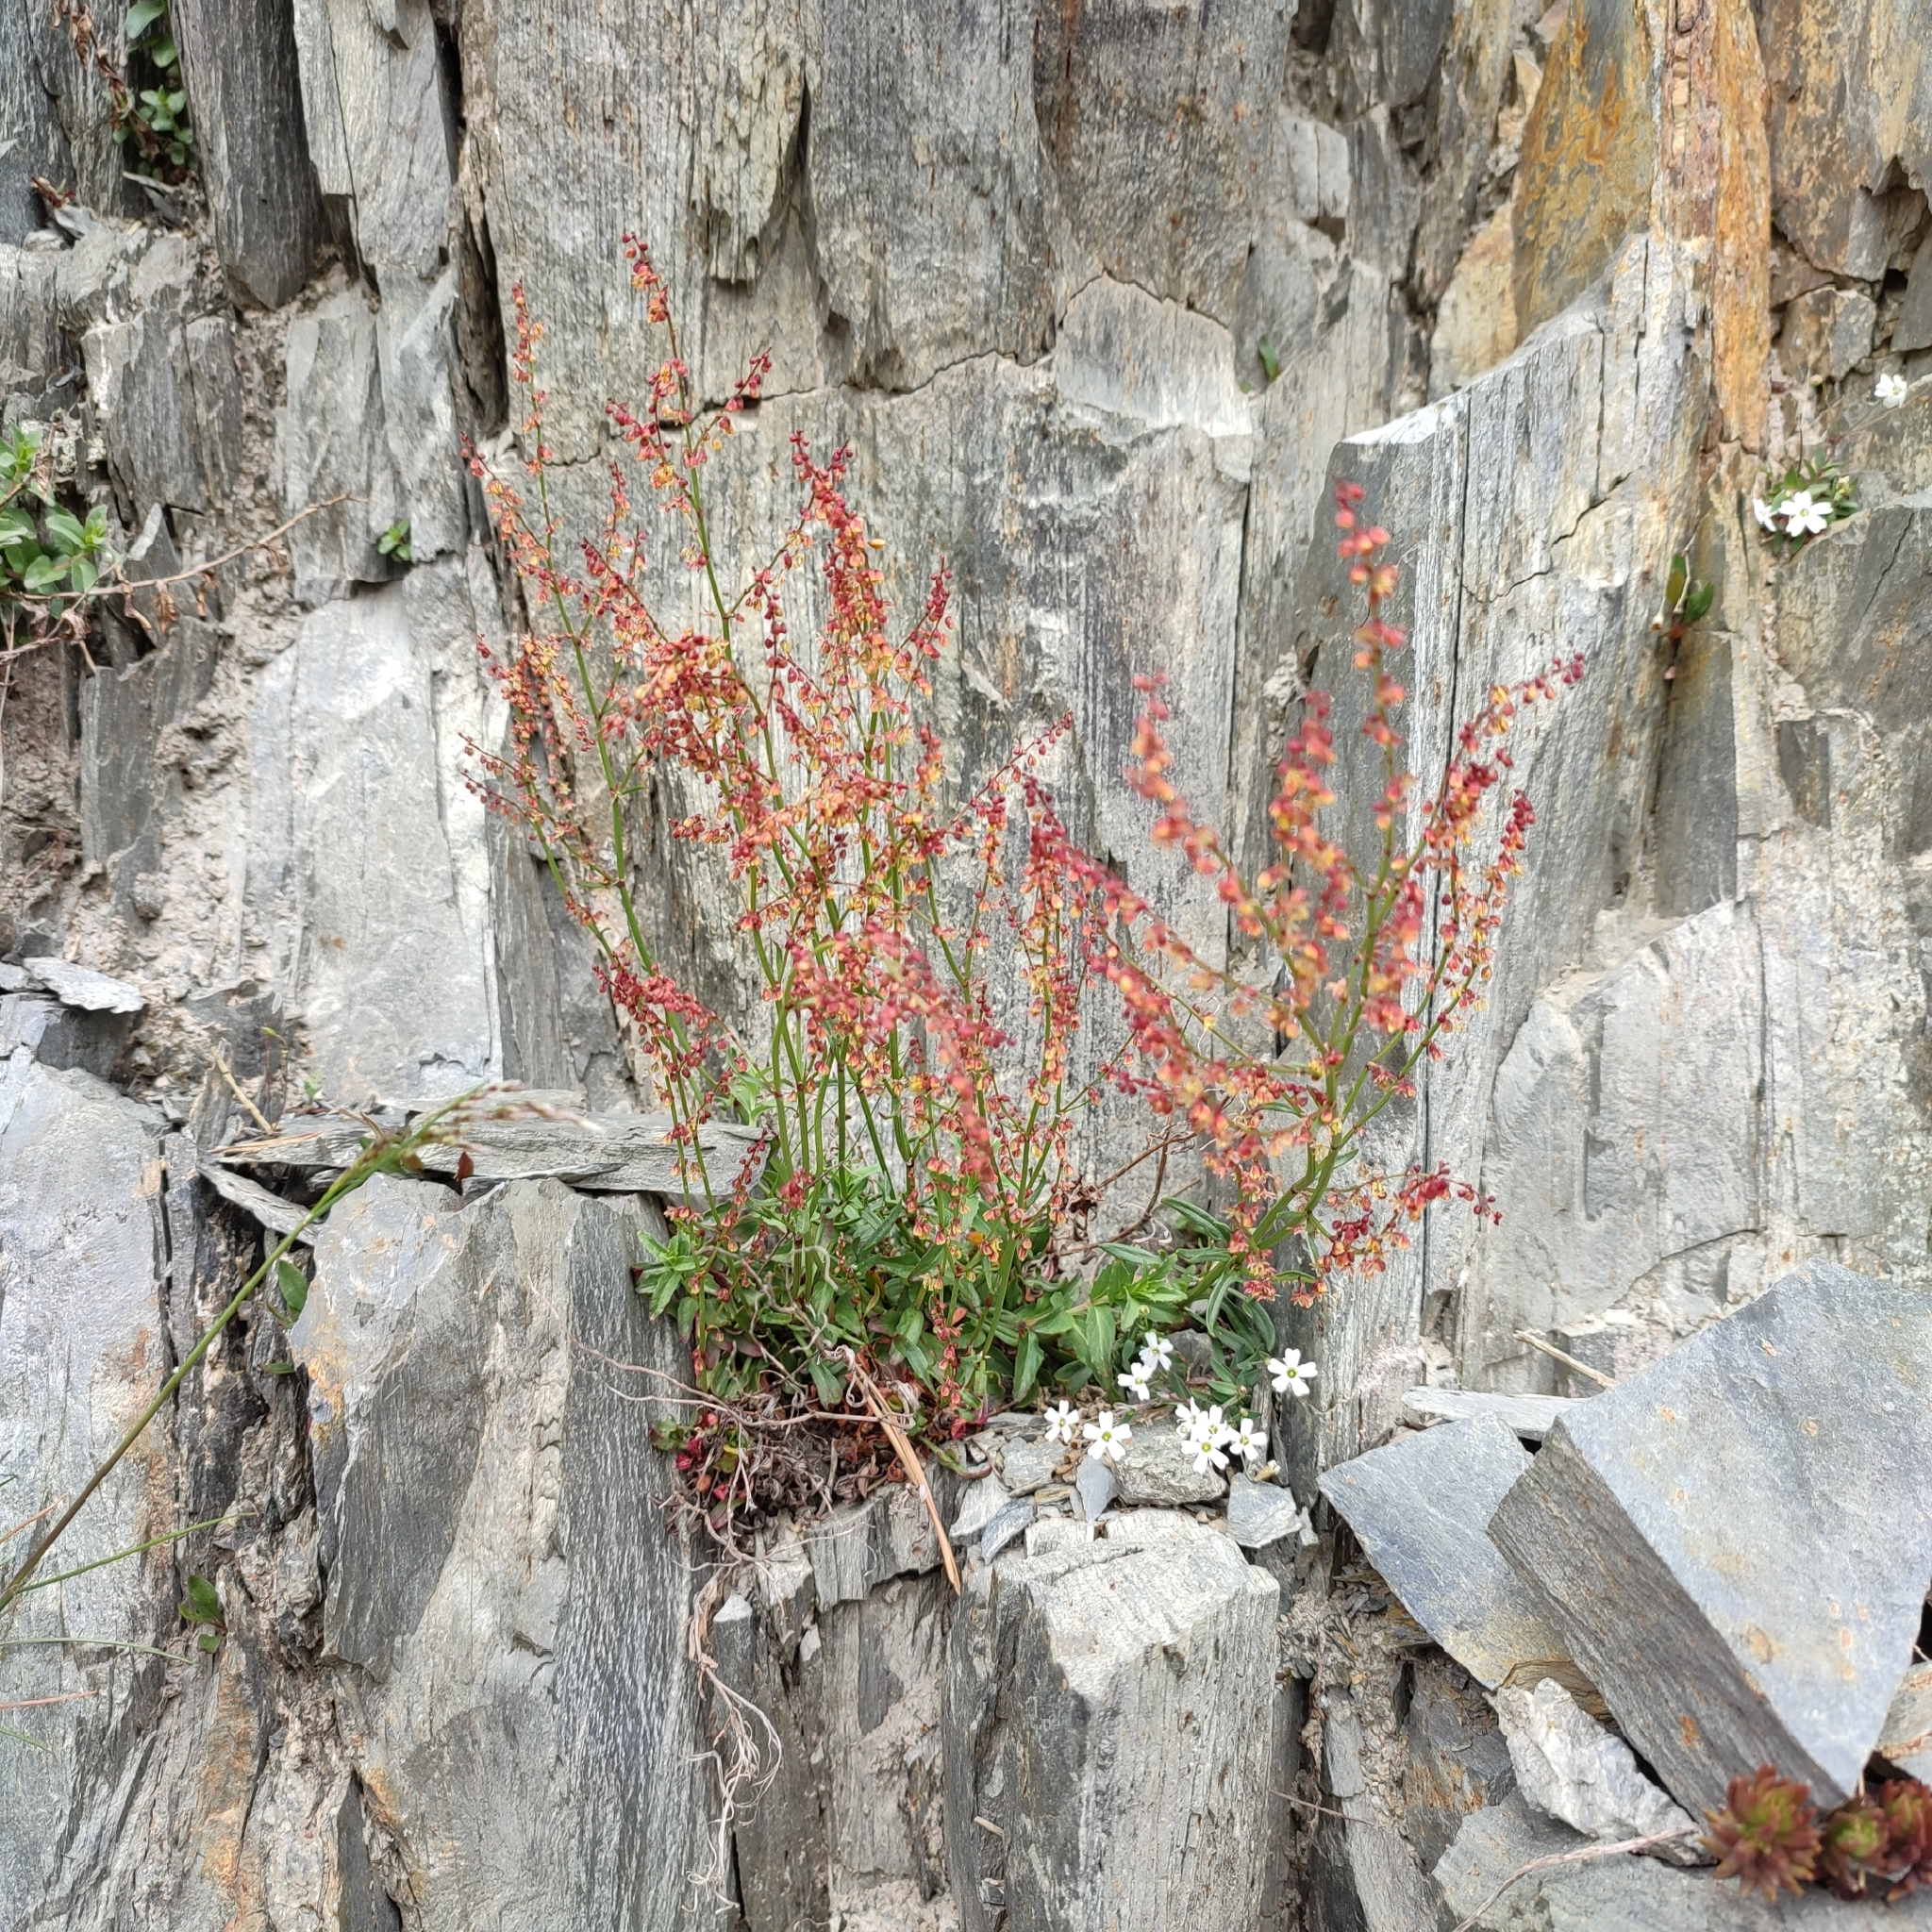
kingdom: Plantae
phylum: Tracheophyta
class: Magnoliopsida
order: Caryophyllales
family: Polygonaceae
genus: Rumex
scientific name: Rumex acetosella
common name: Common sheep sorrel
